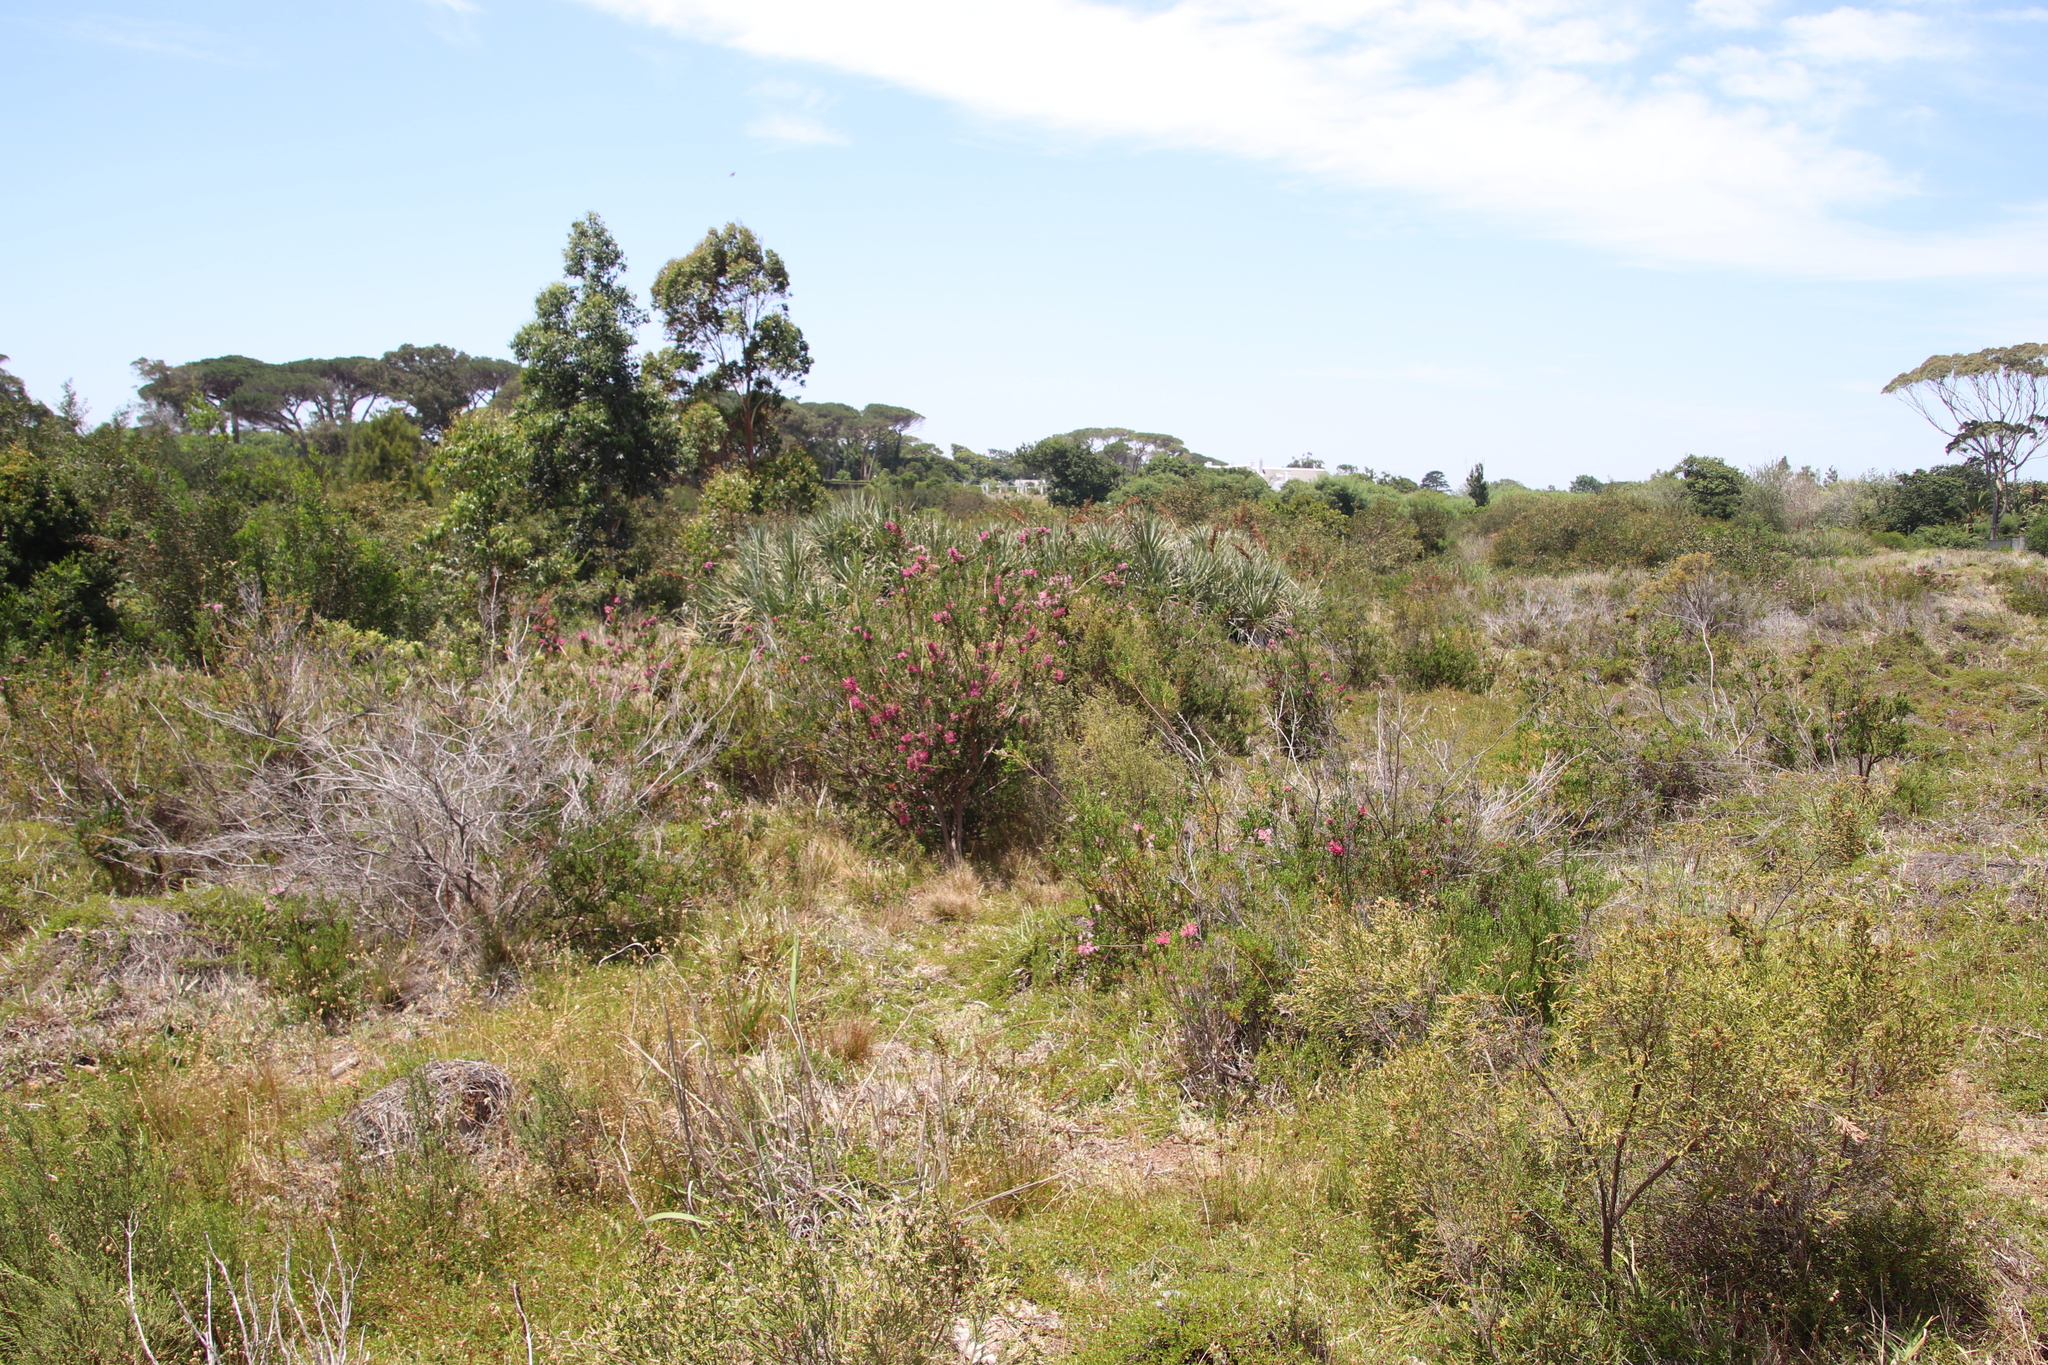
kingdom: Plantae
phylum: Tracheophyta
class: Magnoliopsida
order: Ericales
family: Ericaceae
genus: Erica
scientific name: Erica verticillata
